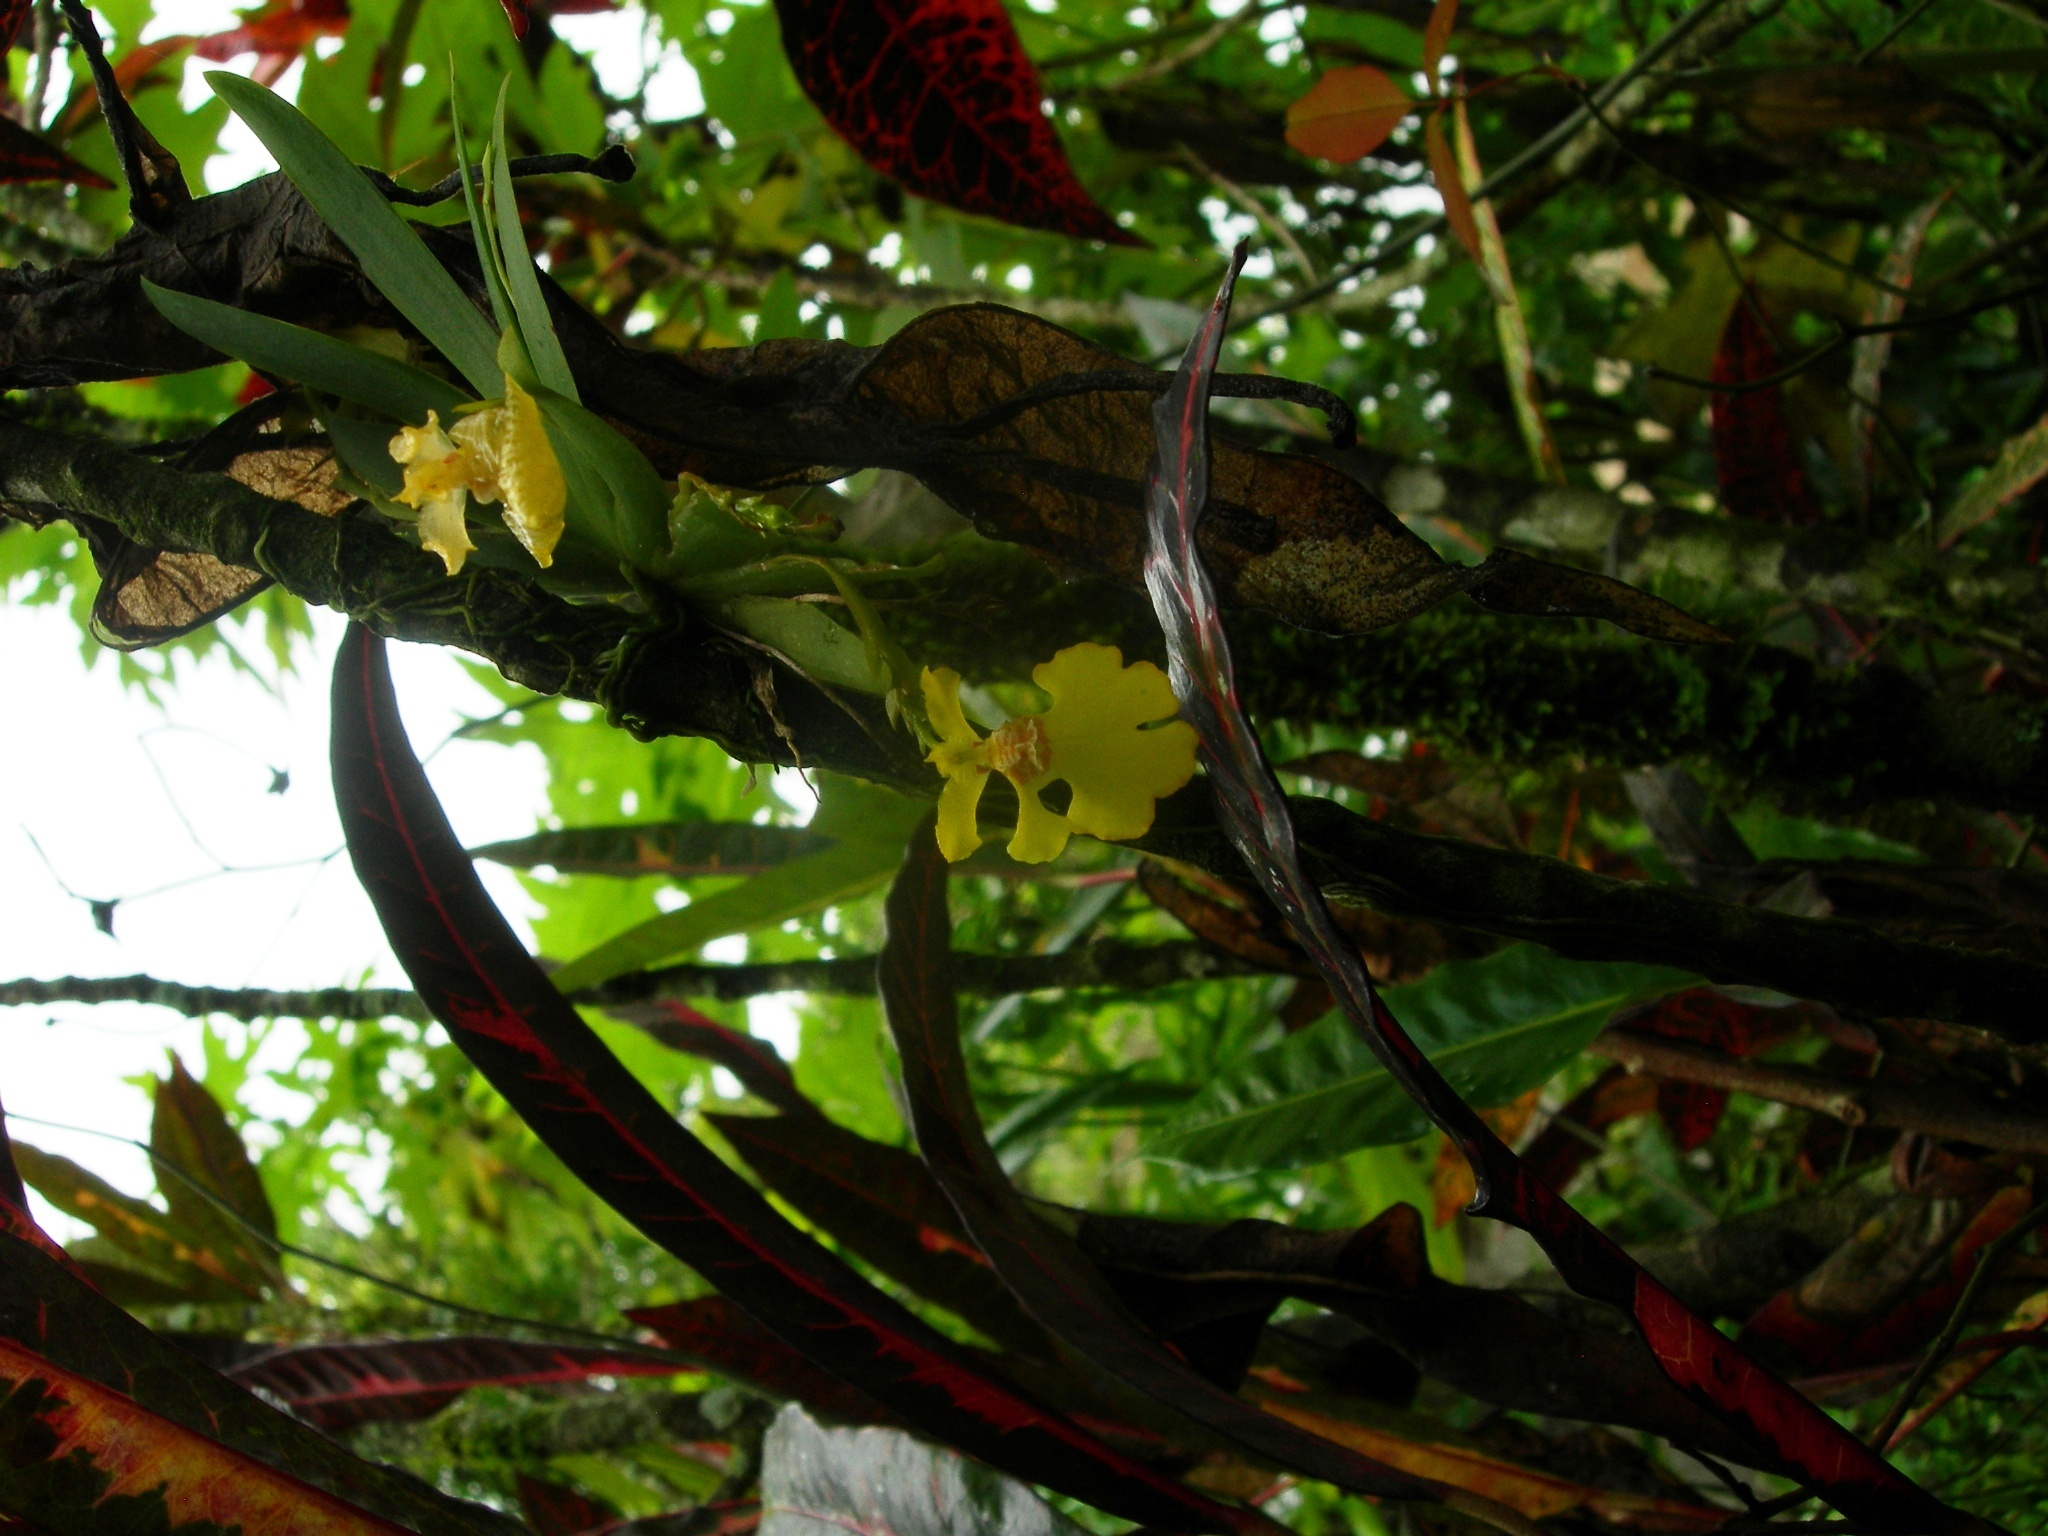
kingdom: Plantae
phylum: Tracheophyta
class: Liliopsida
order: Asparagales
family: Orchidaceae
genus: Erycina
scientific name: Erycina pusilla
